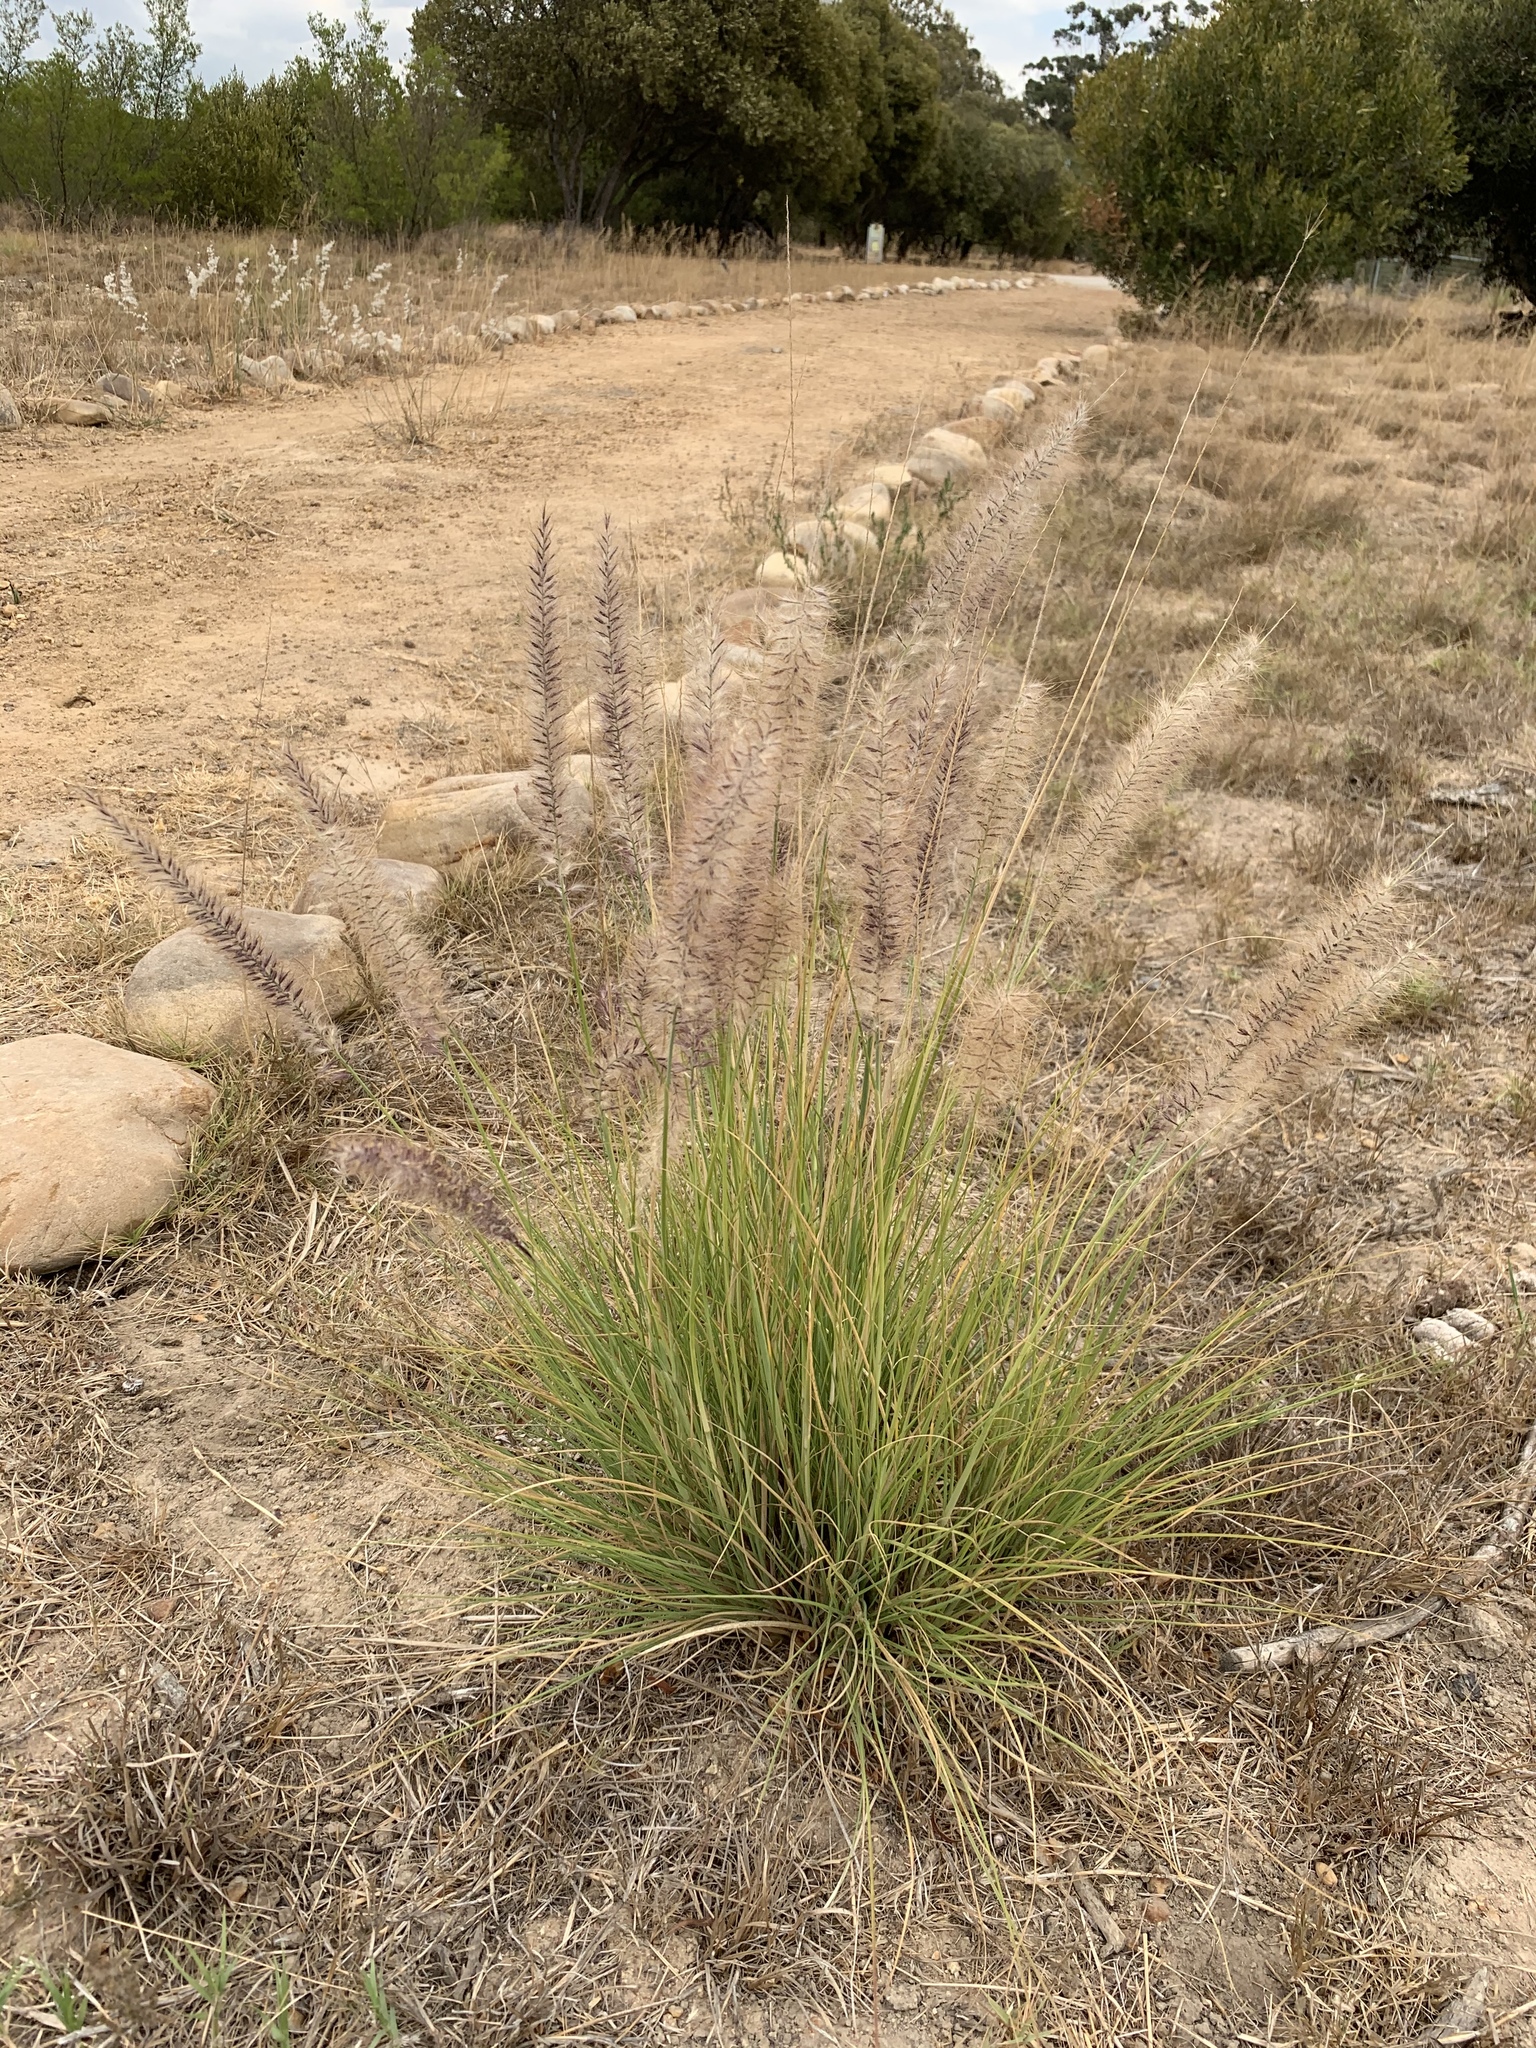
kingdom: Plantae
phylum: Tracheophyta
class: Liliopsida
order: Poales
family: Poaceae
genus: Cenchrus
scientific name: Cenchrus setaceus
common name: Crimson fountaingrass
